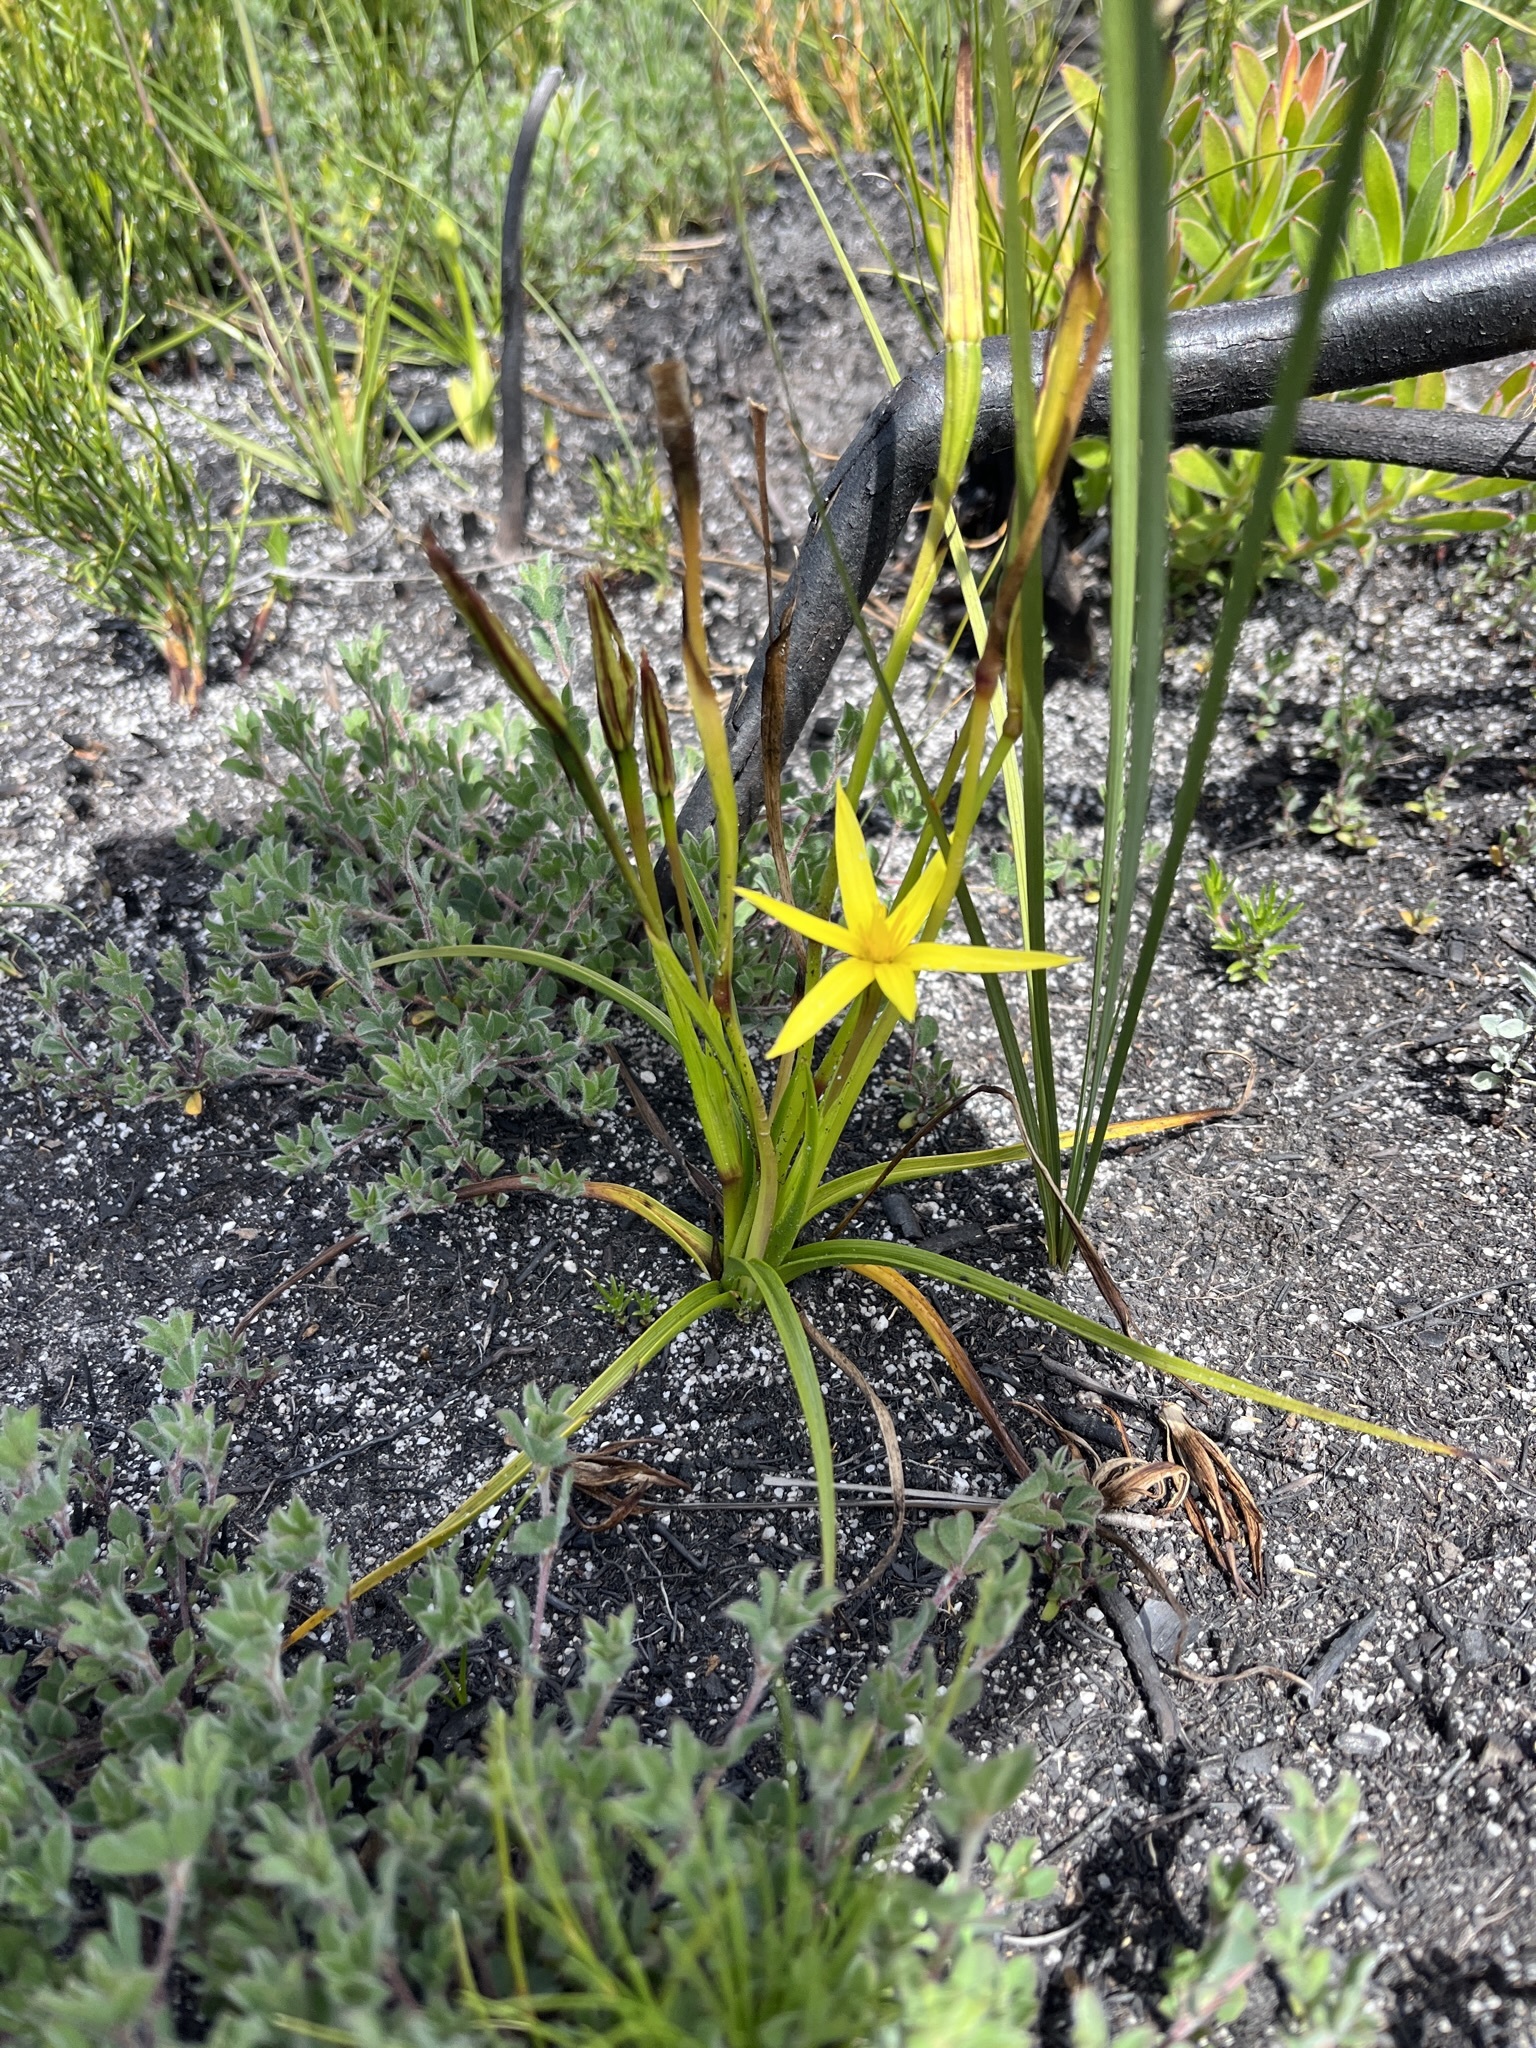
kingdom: Plantae
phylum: Tracheophyta
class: Liliopsida
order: Asparagales
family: Hypoxidaceae
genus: Pauridia
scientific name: Pauridia flaccida
